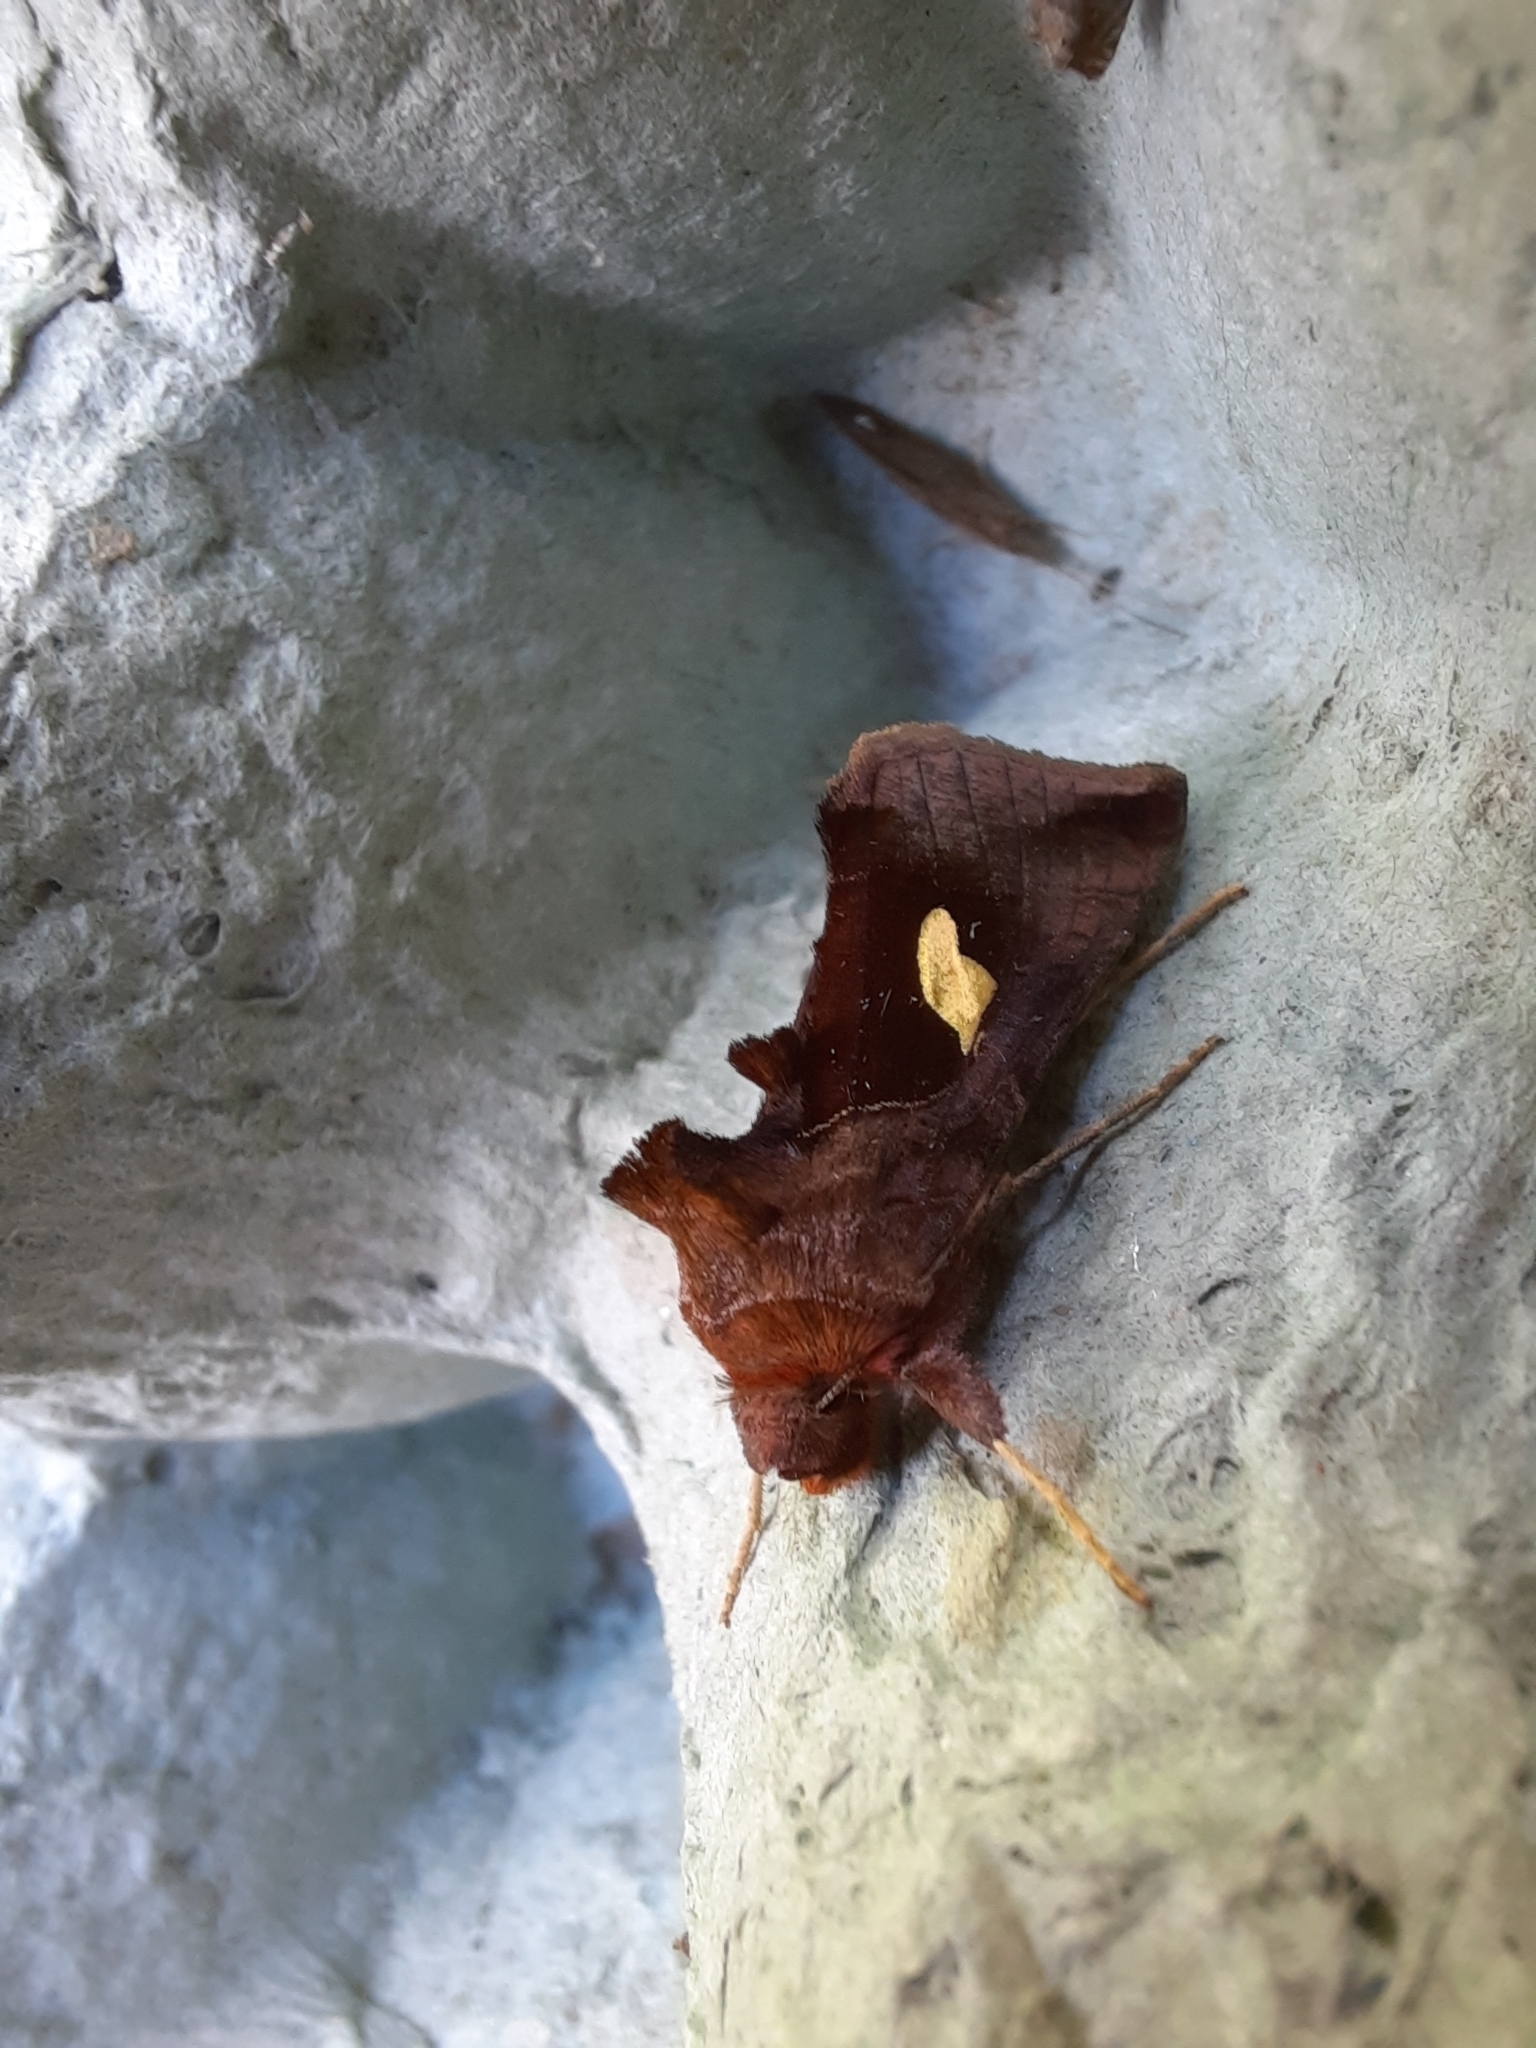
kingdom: Animalia
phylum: Arthropoda
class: Insecta
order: Lepidoptera
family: Noctuidae
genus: Autographa
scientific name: Autographa bractea
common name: Gold spangle
